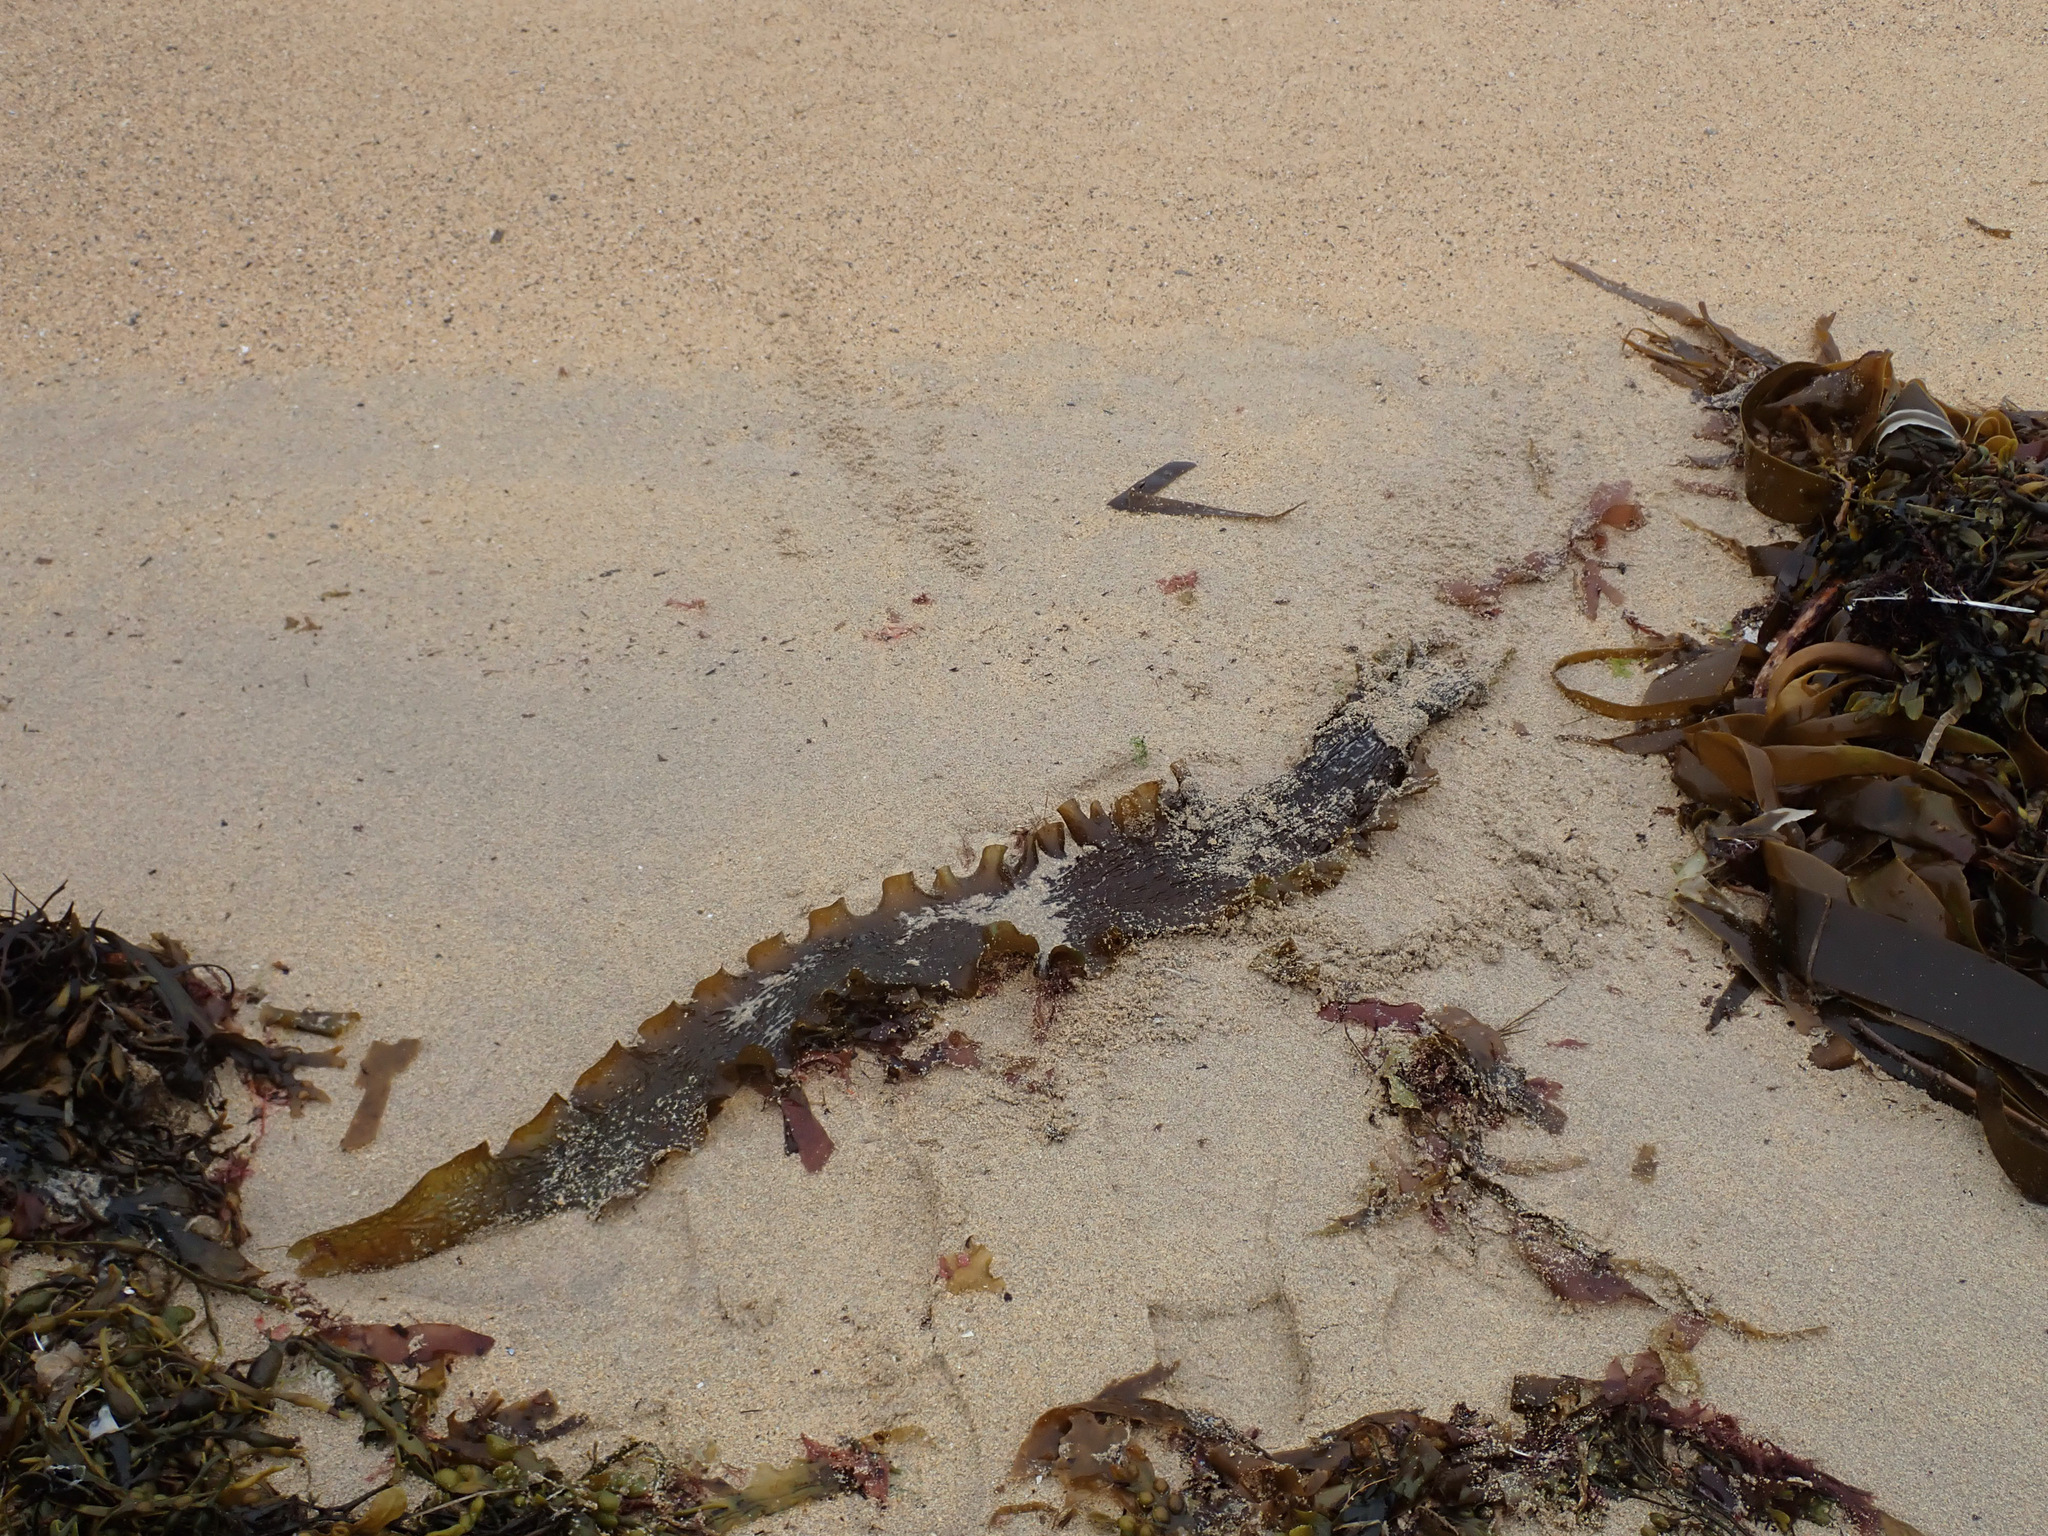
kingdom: Chromista
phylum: Ochrophyta
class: Phaeophyceae
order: Laminariales
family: Laminariaceae
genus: Saccharina
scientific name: Saccharina latissima
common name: Poor man's weather glass
